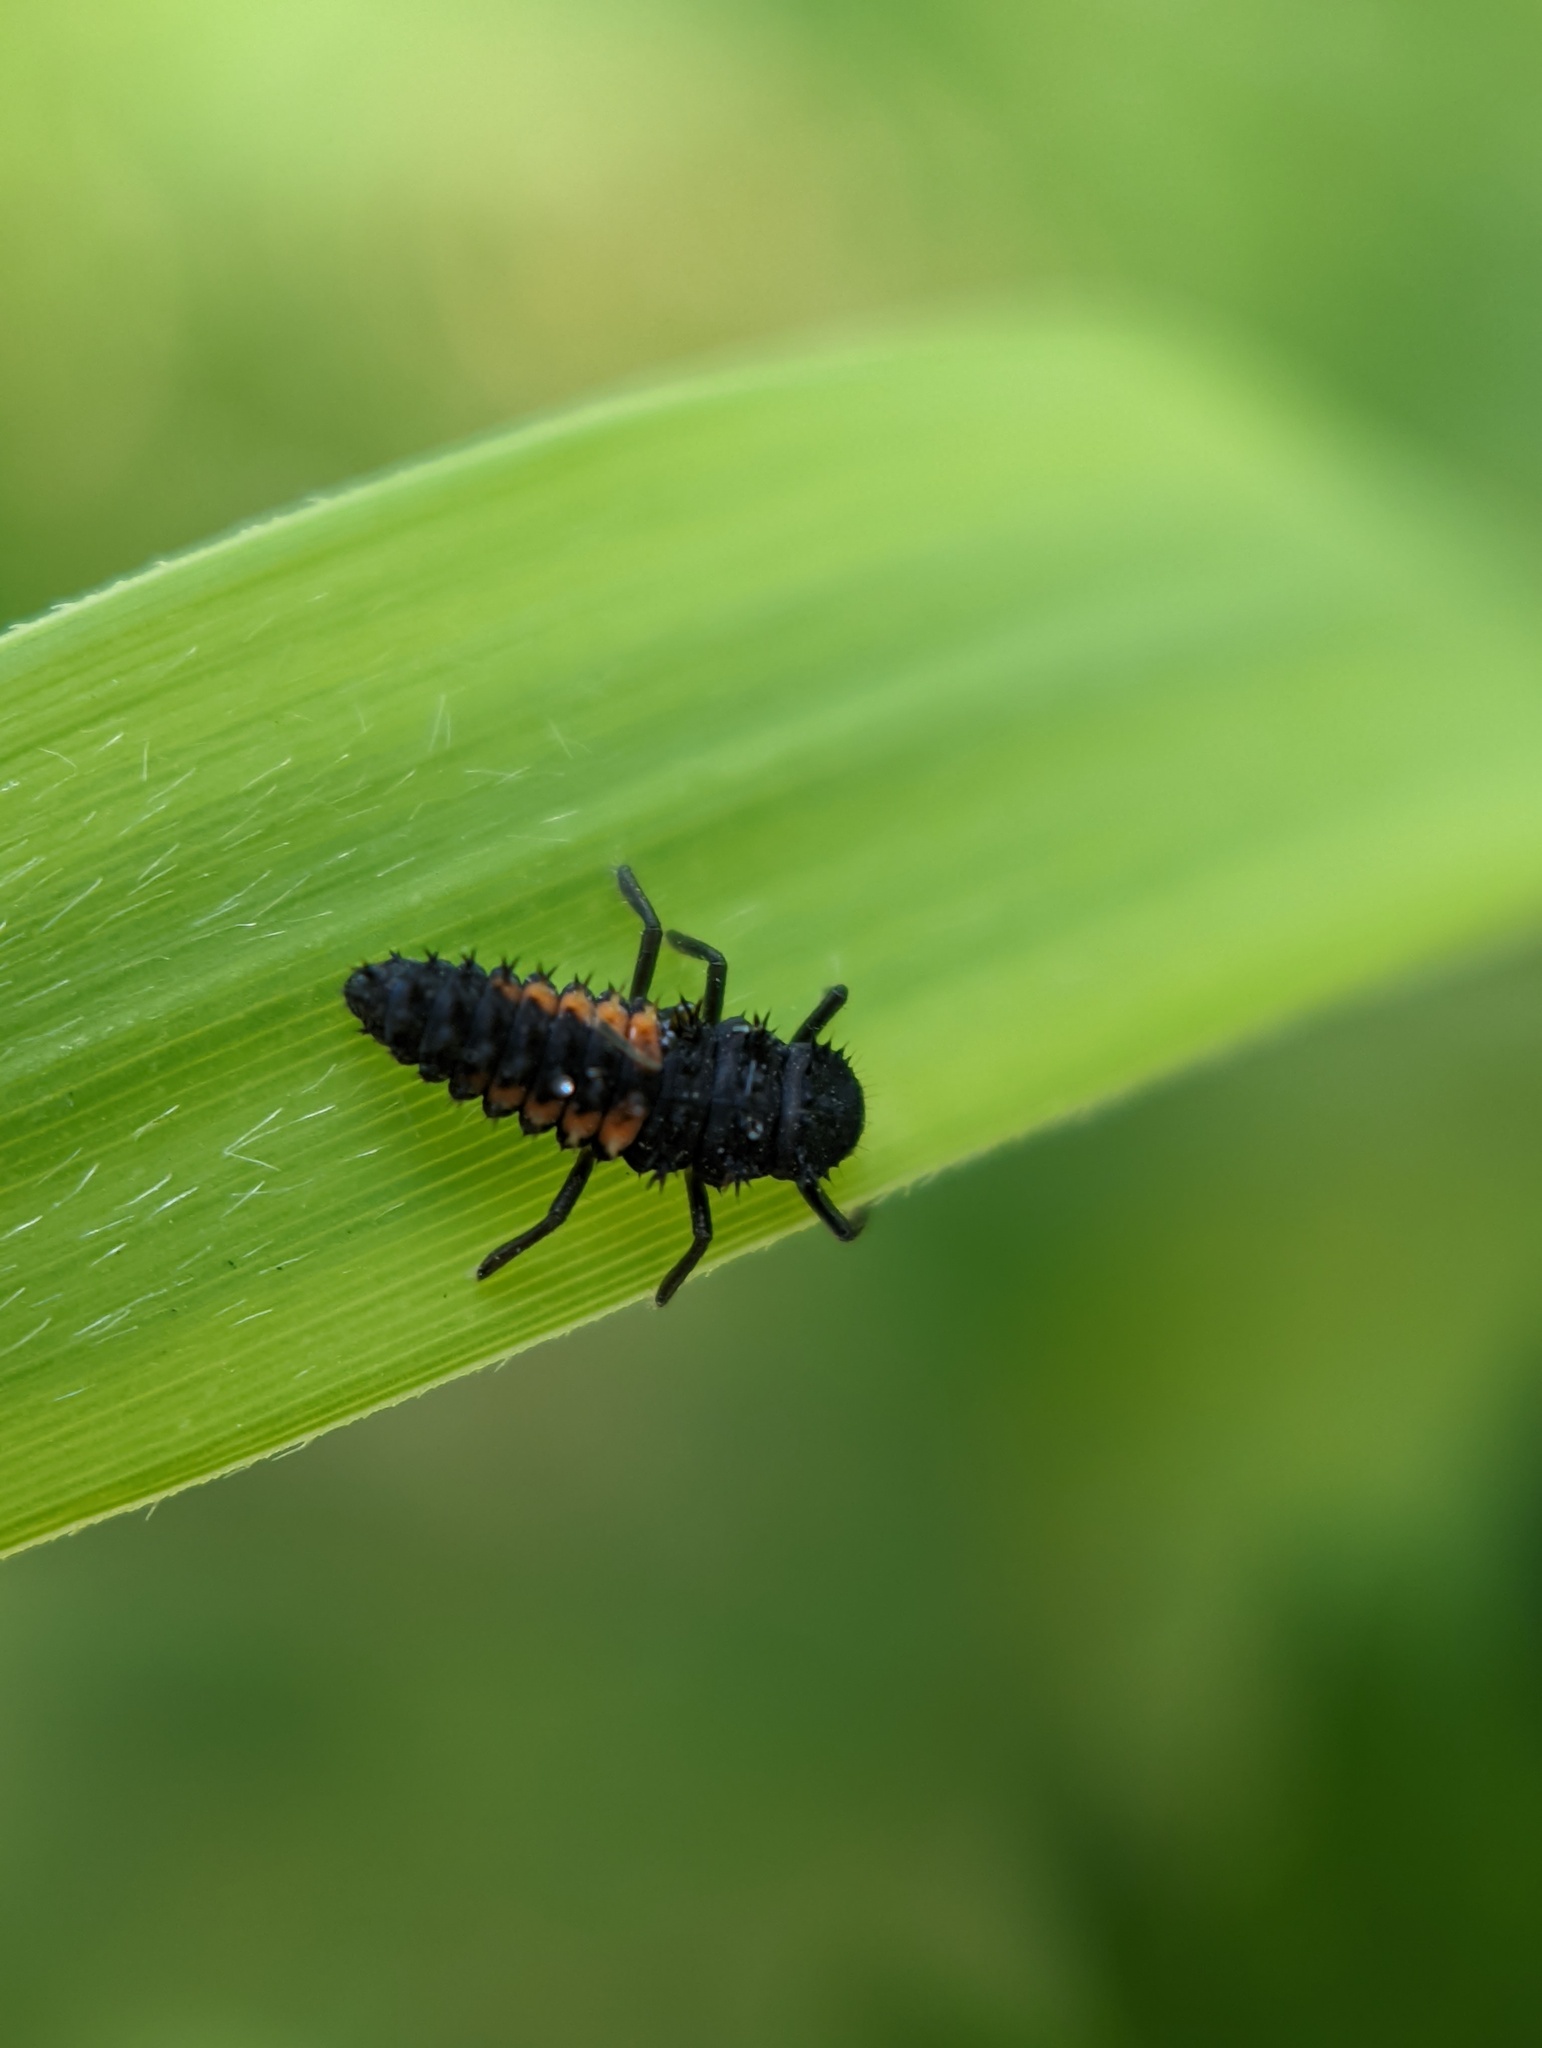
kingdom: Animalia
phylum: Arthropoda
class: Insecta
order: Coleoptera
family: Coccinellidae
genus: Harmonia
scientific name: Harmonia axyridis
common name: Harlequin ladybird
